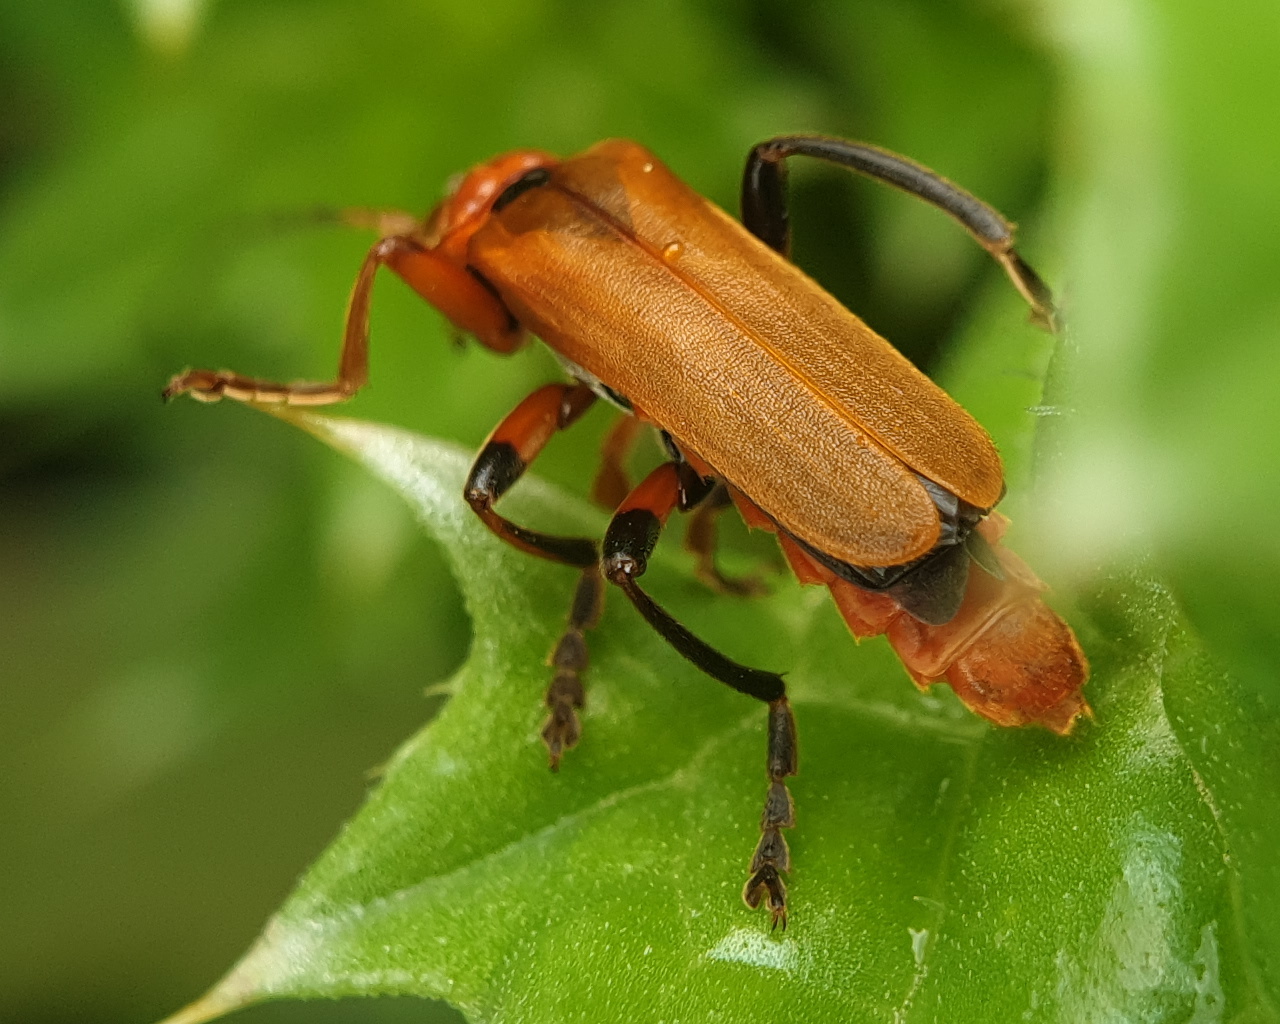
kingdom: Animalia
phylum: Arthropoda
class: Insecta
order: Coleoptera
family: Cantharidae
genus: Cantharis
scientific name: Cantharis melaspoides
